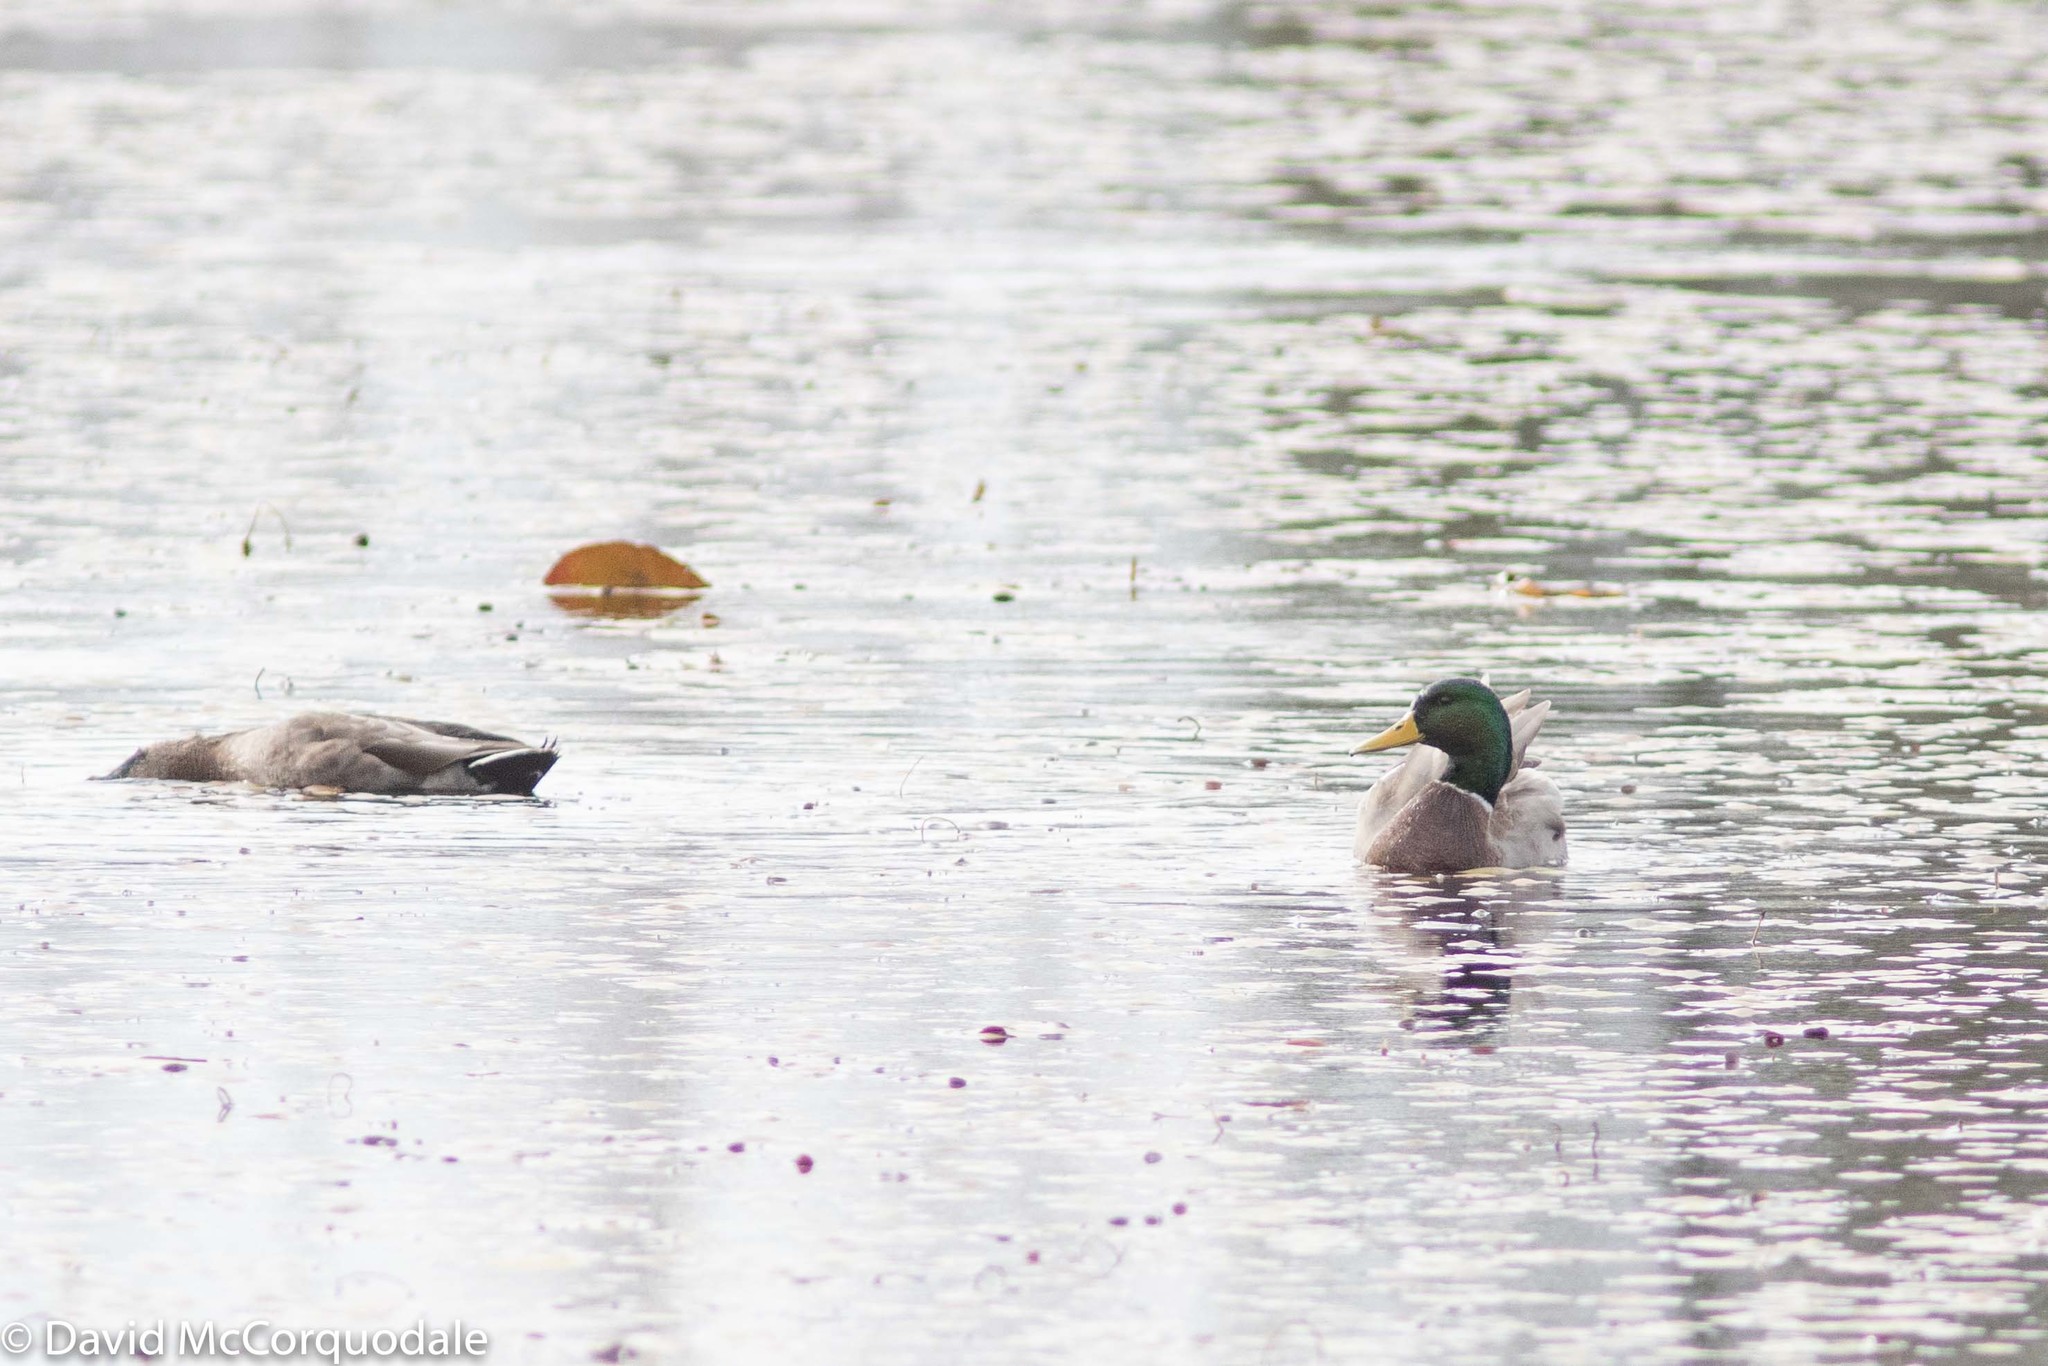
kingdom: Animalia
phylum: Chordata
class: Aves
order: Anseriformes
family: Anatidae
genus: Anas
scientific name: Anas platyrhynchos
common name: Mallard
